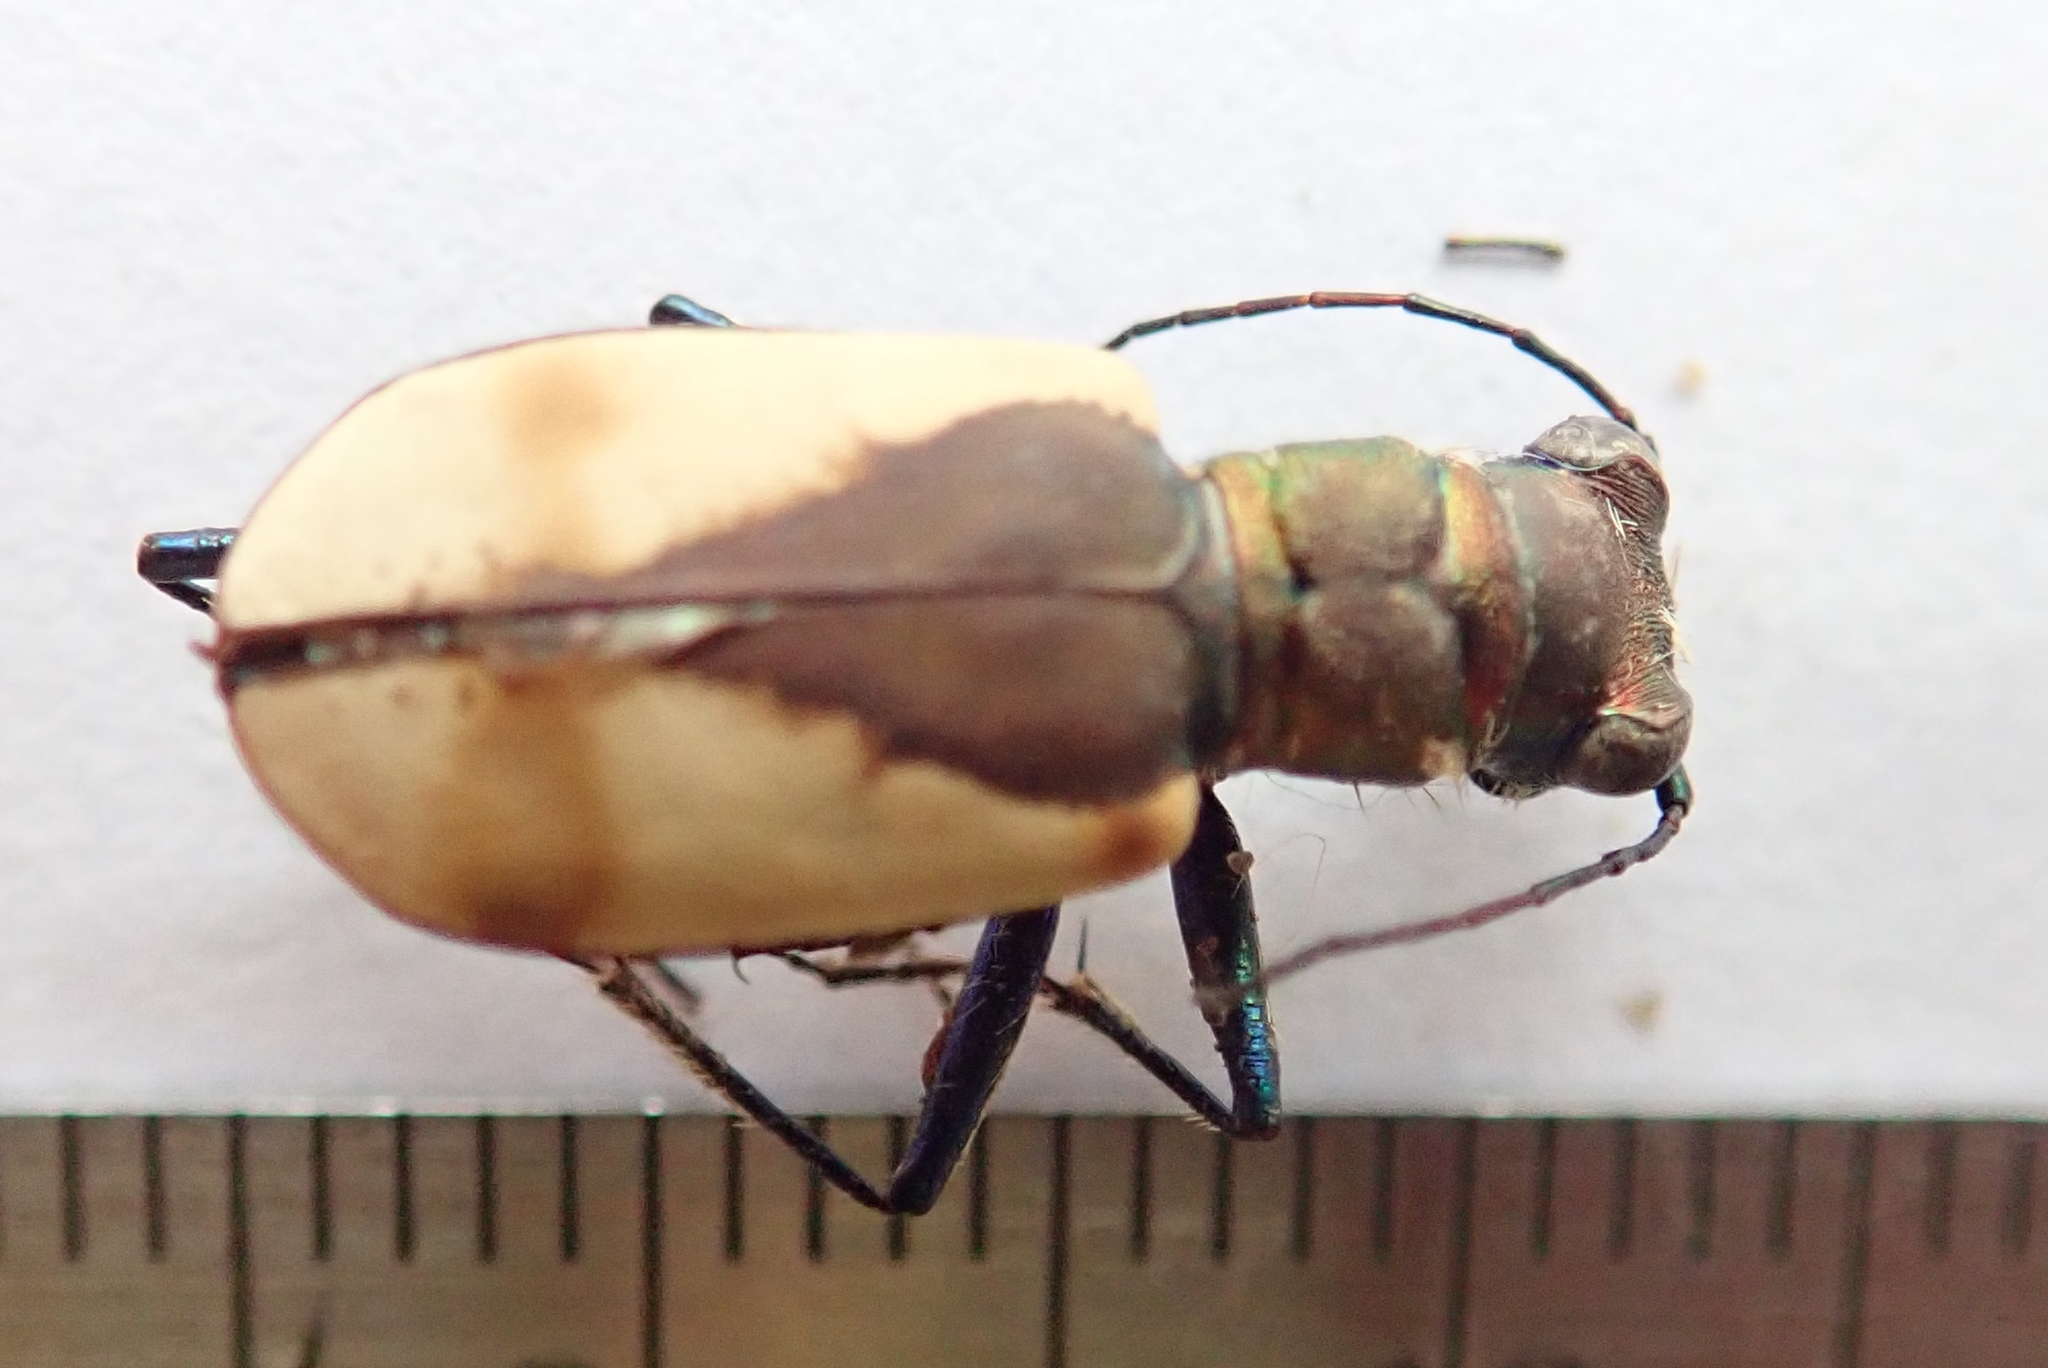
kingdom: Animalia
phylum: Arthropoda
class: Insecta
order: Coleoptera
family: Carabidae
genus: Cicindela
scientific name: Cicindela formosa
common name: Big sand tiger beetle
